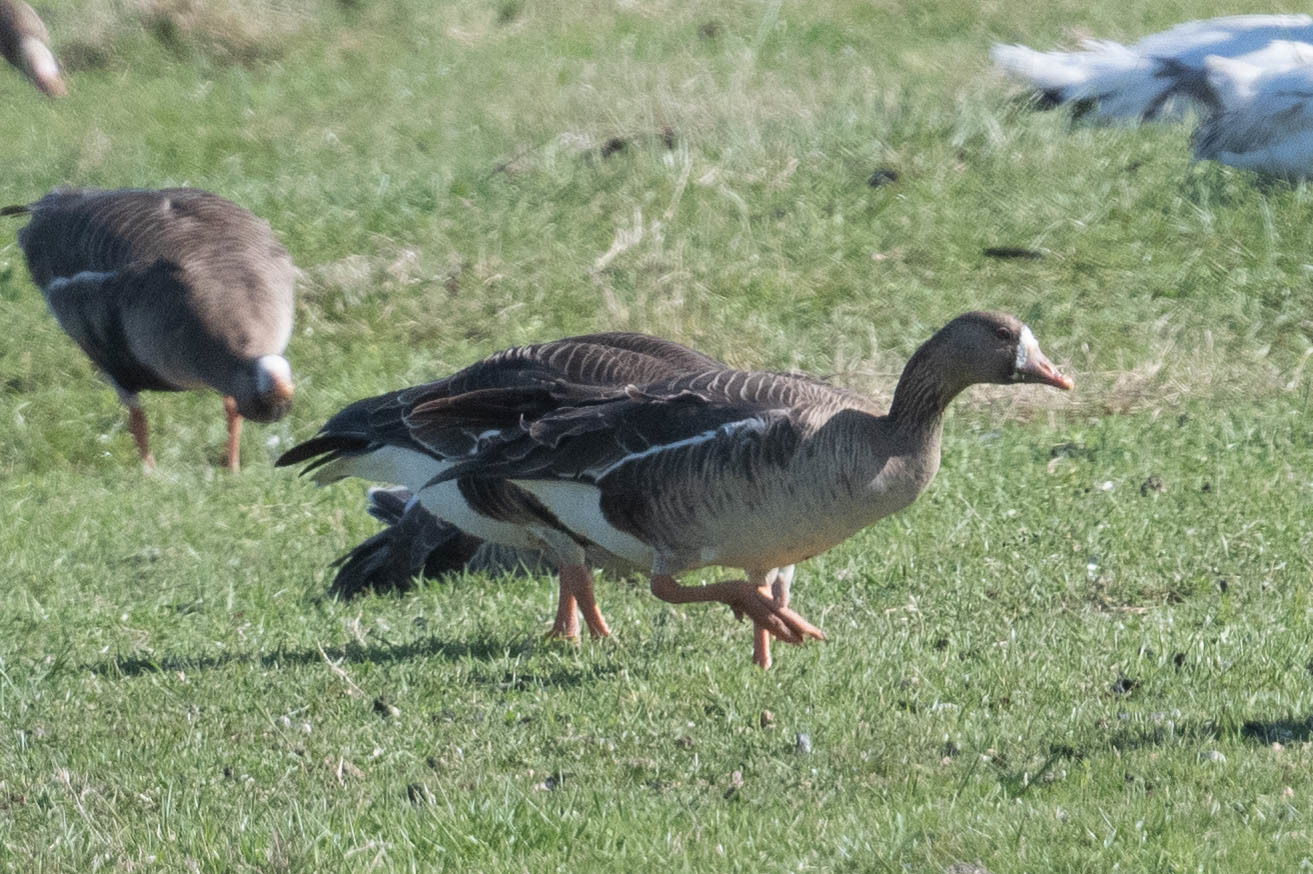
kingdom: Animalia
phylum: Chordata
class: Aves
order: Anseriformes
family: Anatidae
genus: Anser
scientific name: Anser albifrons
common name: Greater white-fronted goose
